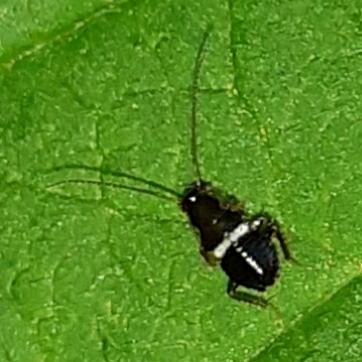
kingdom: Animalia
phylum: Arthropoda
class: Insecta
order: Blattodea
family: Ectobiidae
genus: Planuncus
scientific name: Planuncus vinzi
